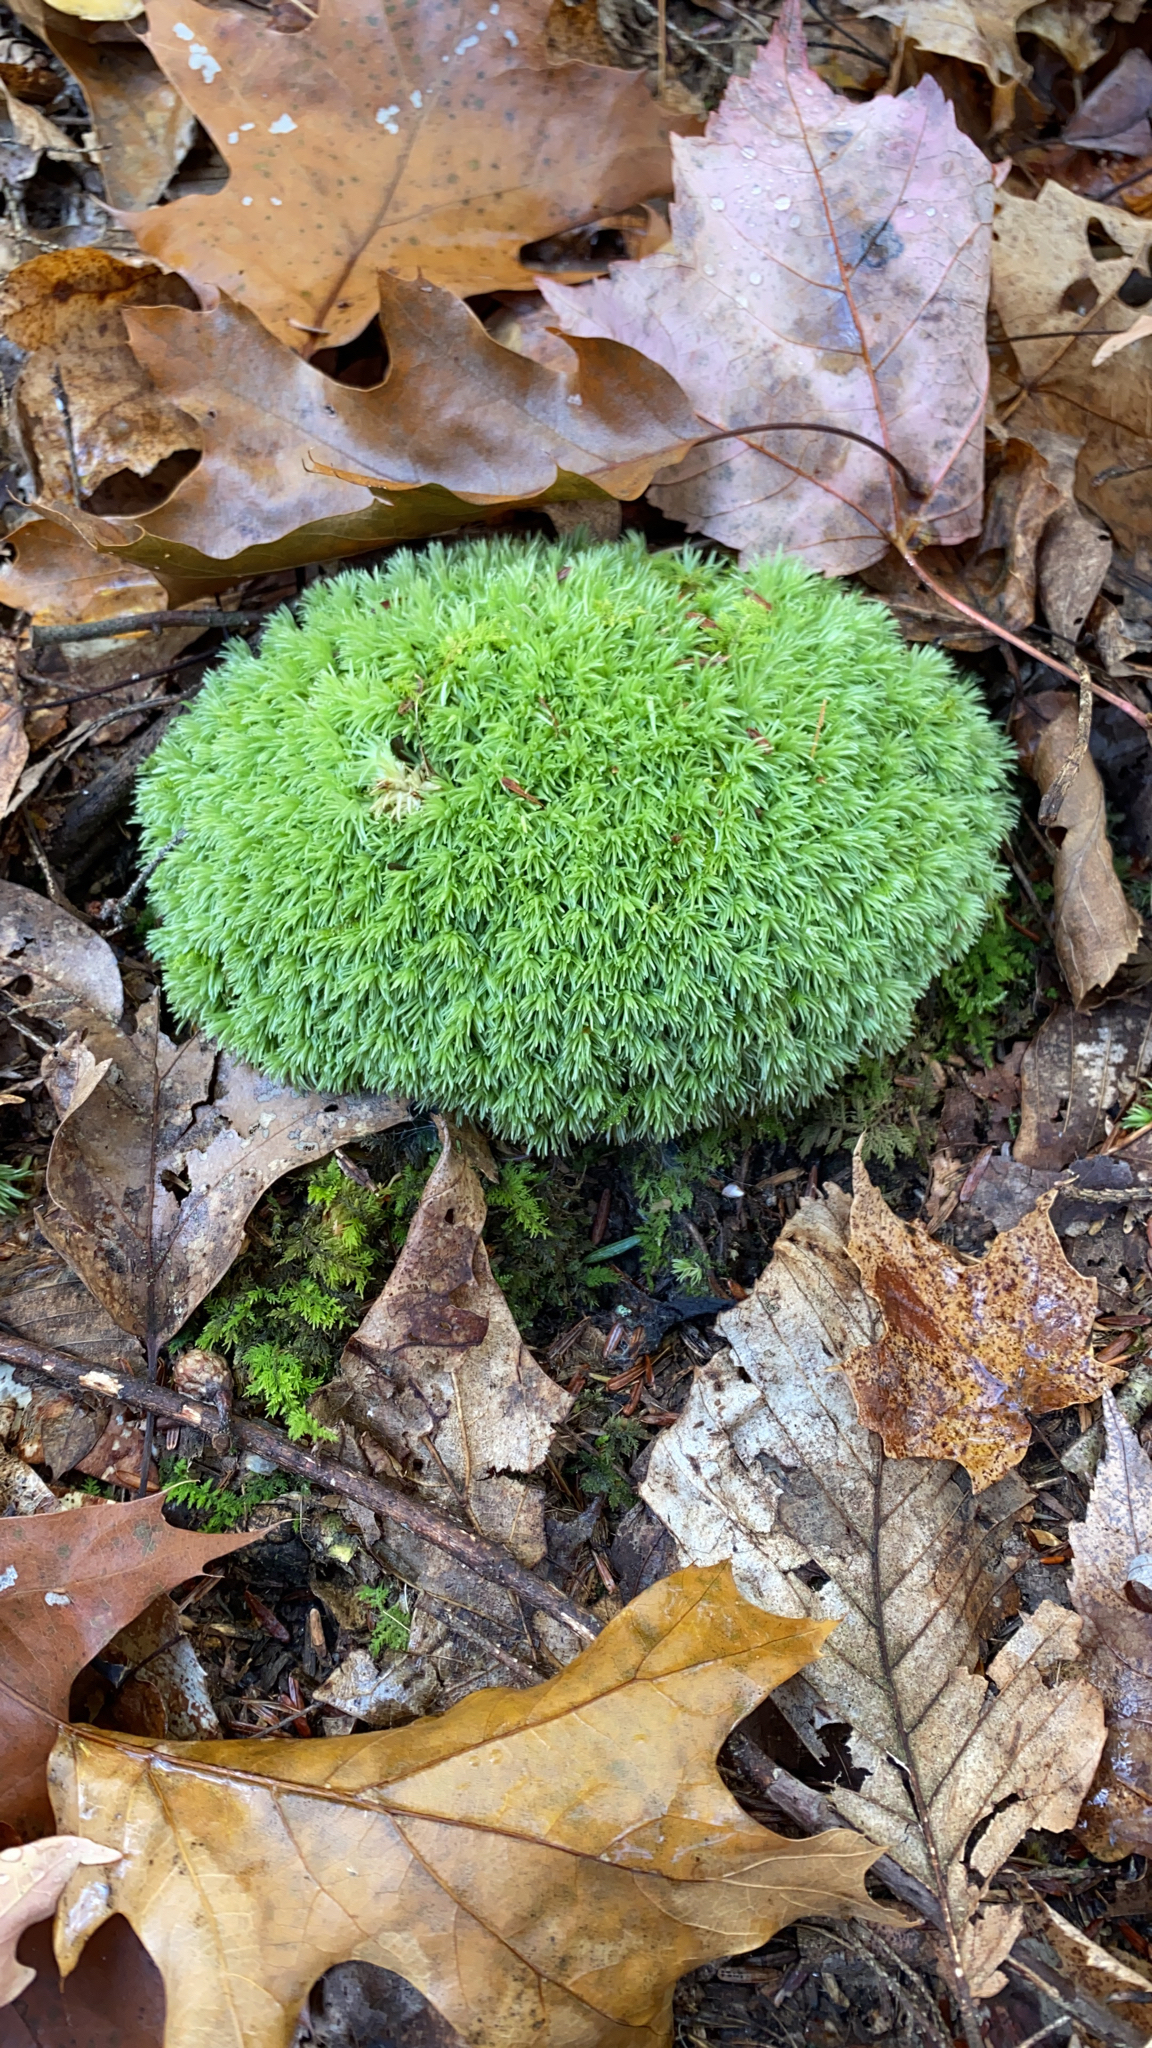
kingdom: Plantae
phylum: Bryophyta
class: Bryopsida
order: Dicranales
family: Leucobryaceae
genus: Leucobryum
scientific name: Leucobryum glaucum
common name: Large white-moss
